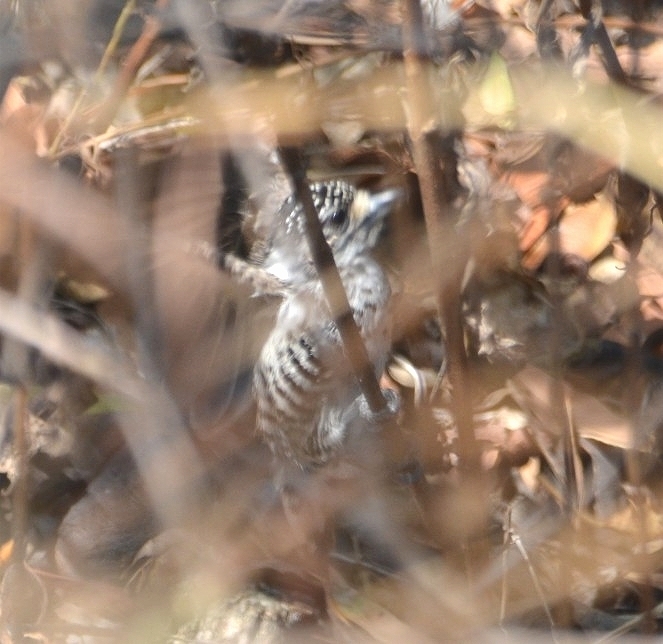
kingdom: Animalia
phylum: Chordata
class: Aves
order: Piciformes
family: Picidae
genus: Picumnus
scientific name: Picumnus cirratus
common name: White-barred piculet
